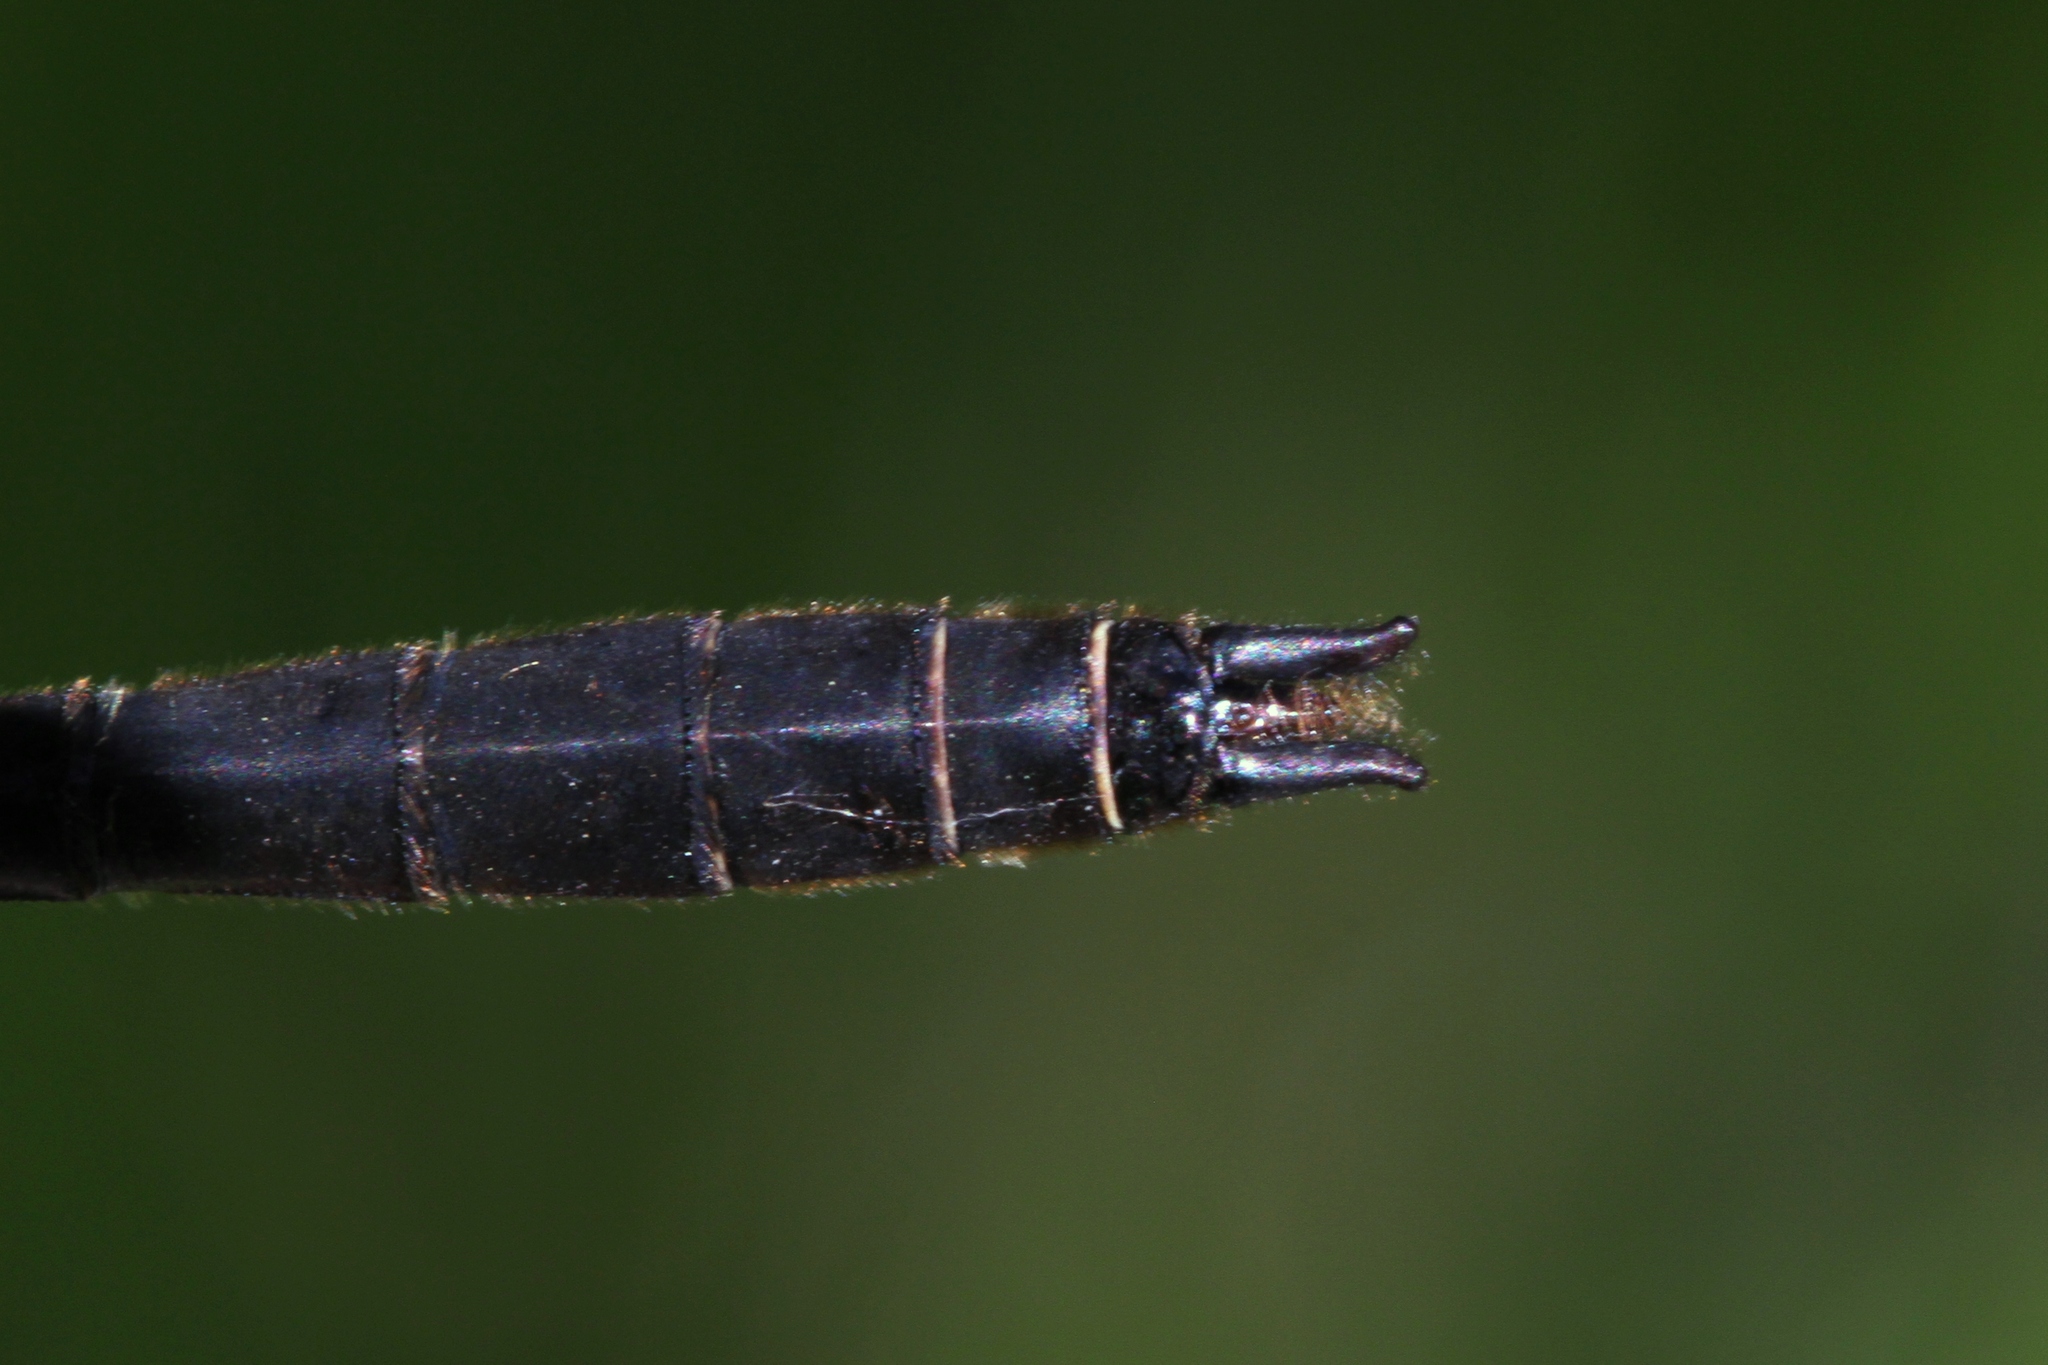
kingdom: Animalia
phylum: Arthropoda
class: Insecta
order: Odonata
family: Corduliidae
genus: Cordulia
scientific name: Cordulia shurtleffii
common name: American emerald
